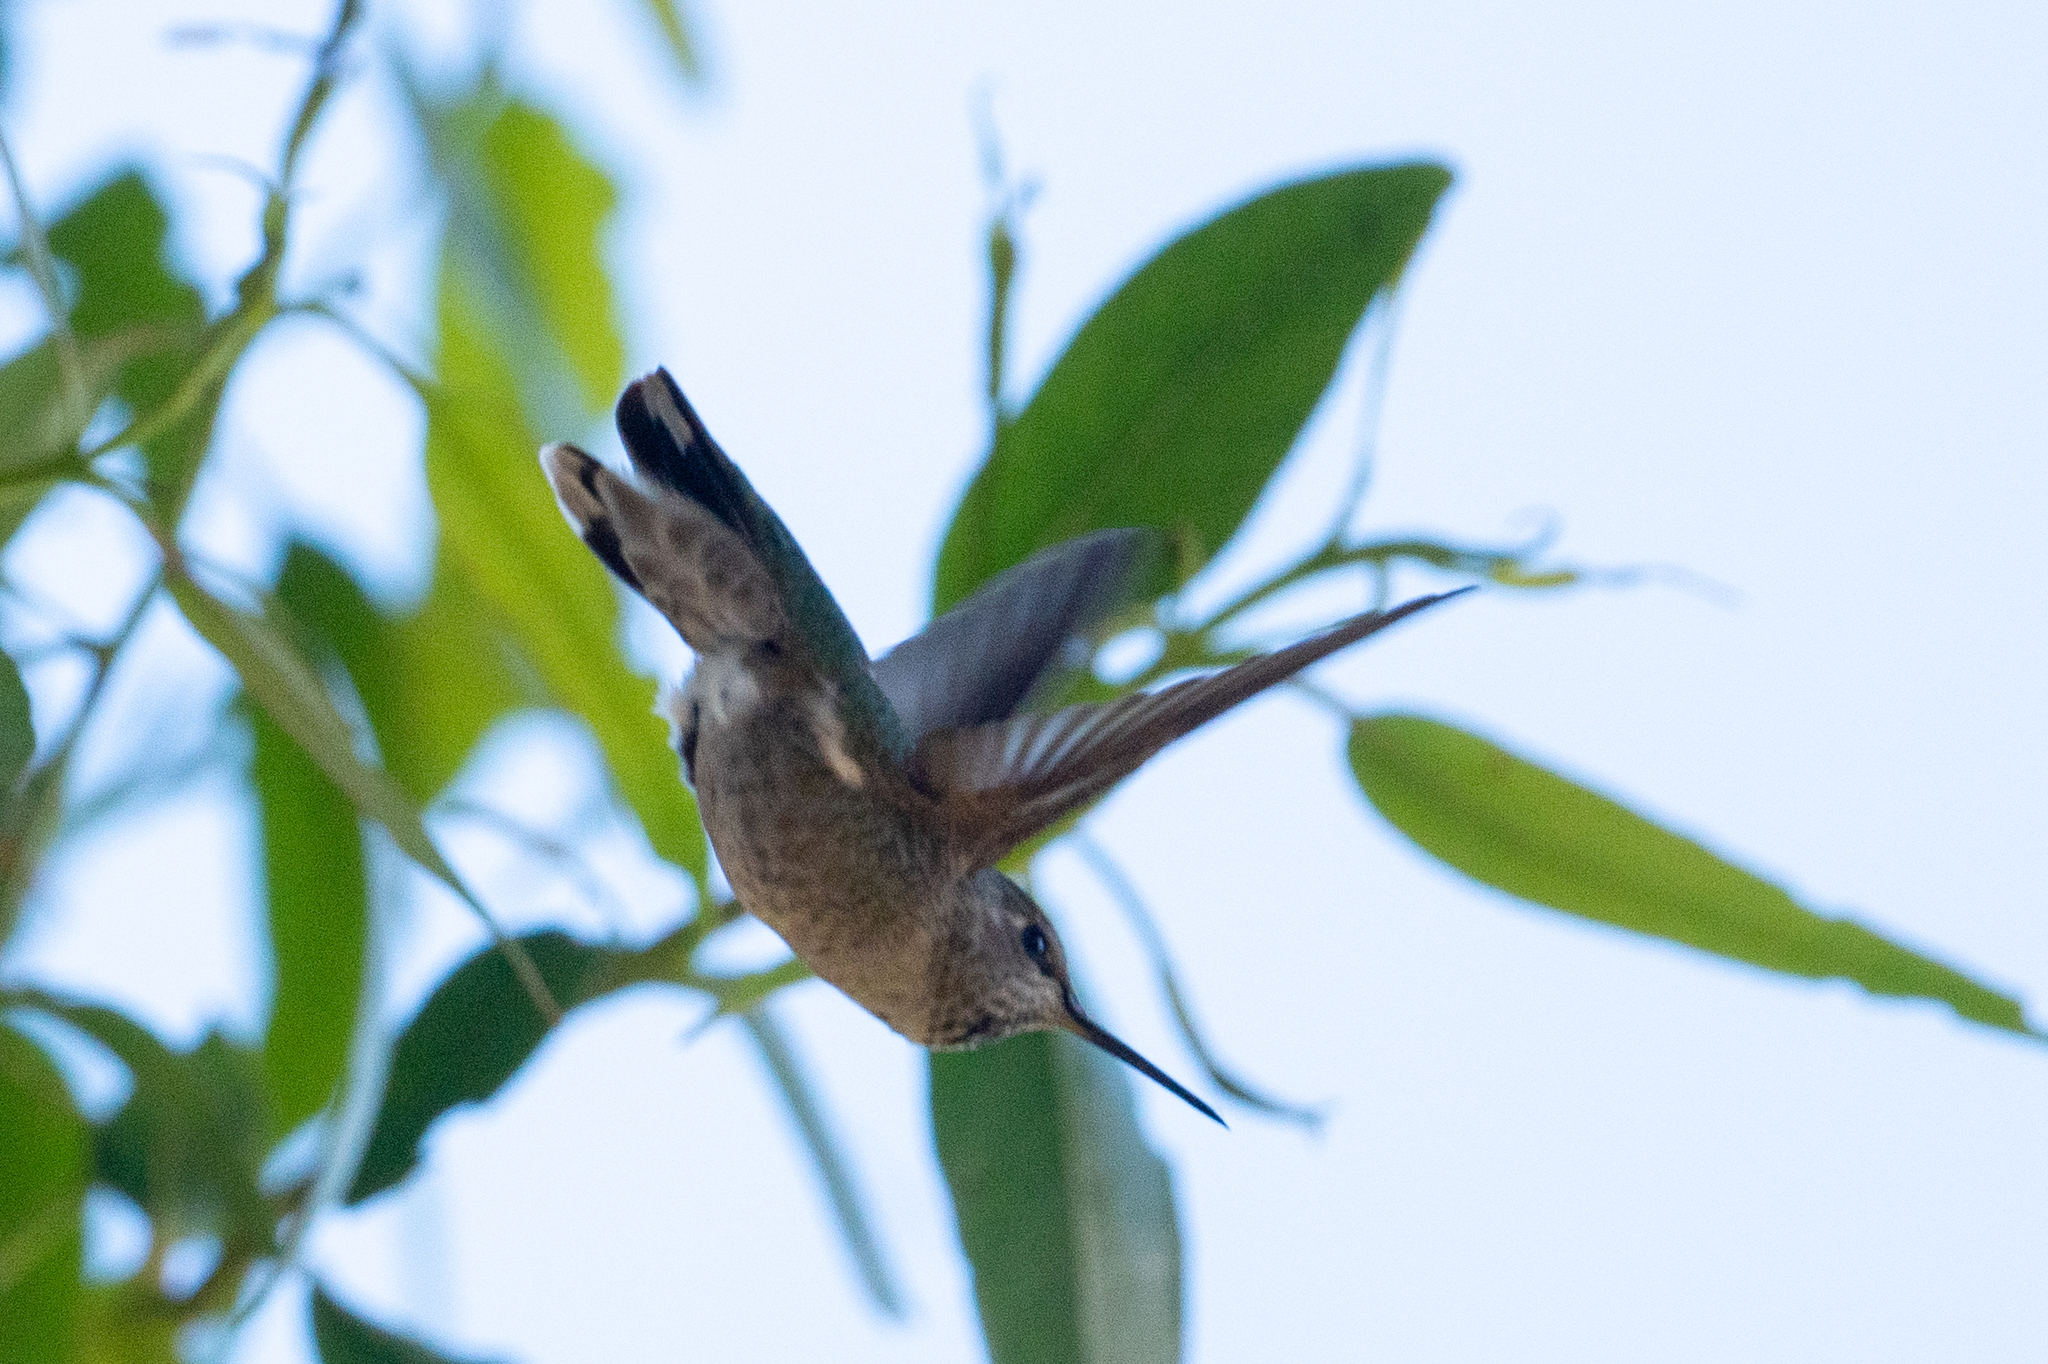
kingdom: Animalia
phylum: Chordata
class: Aves
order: Apodiformes
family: Trochilidae
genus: Calypte
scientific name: Calypte anna
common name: Anna's hummingbird
